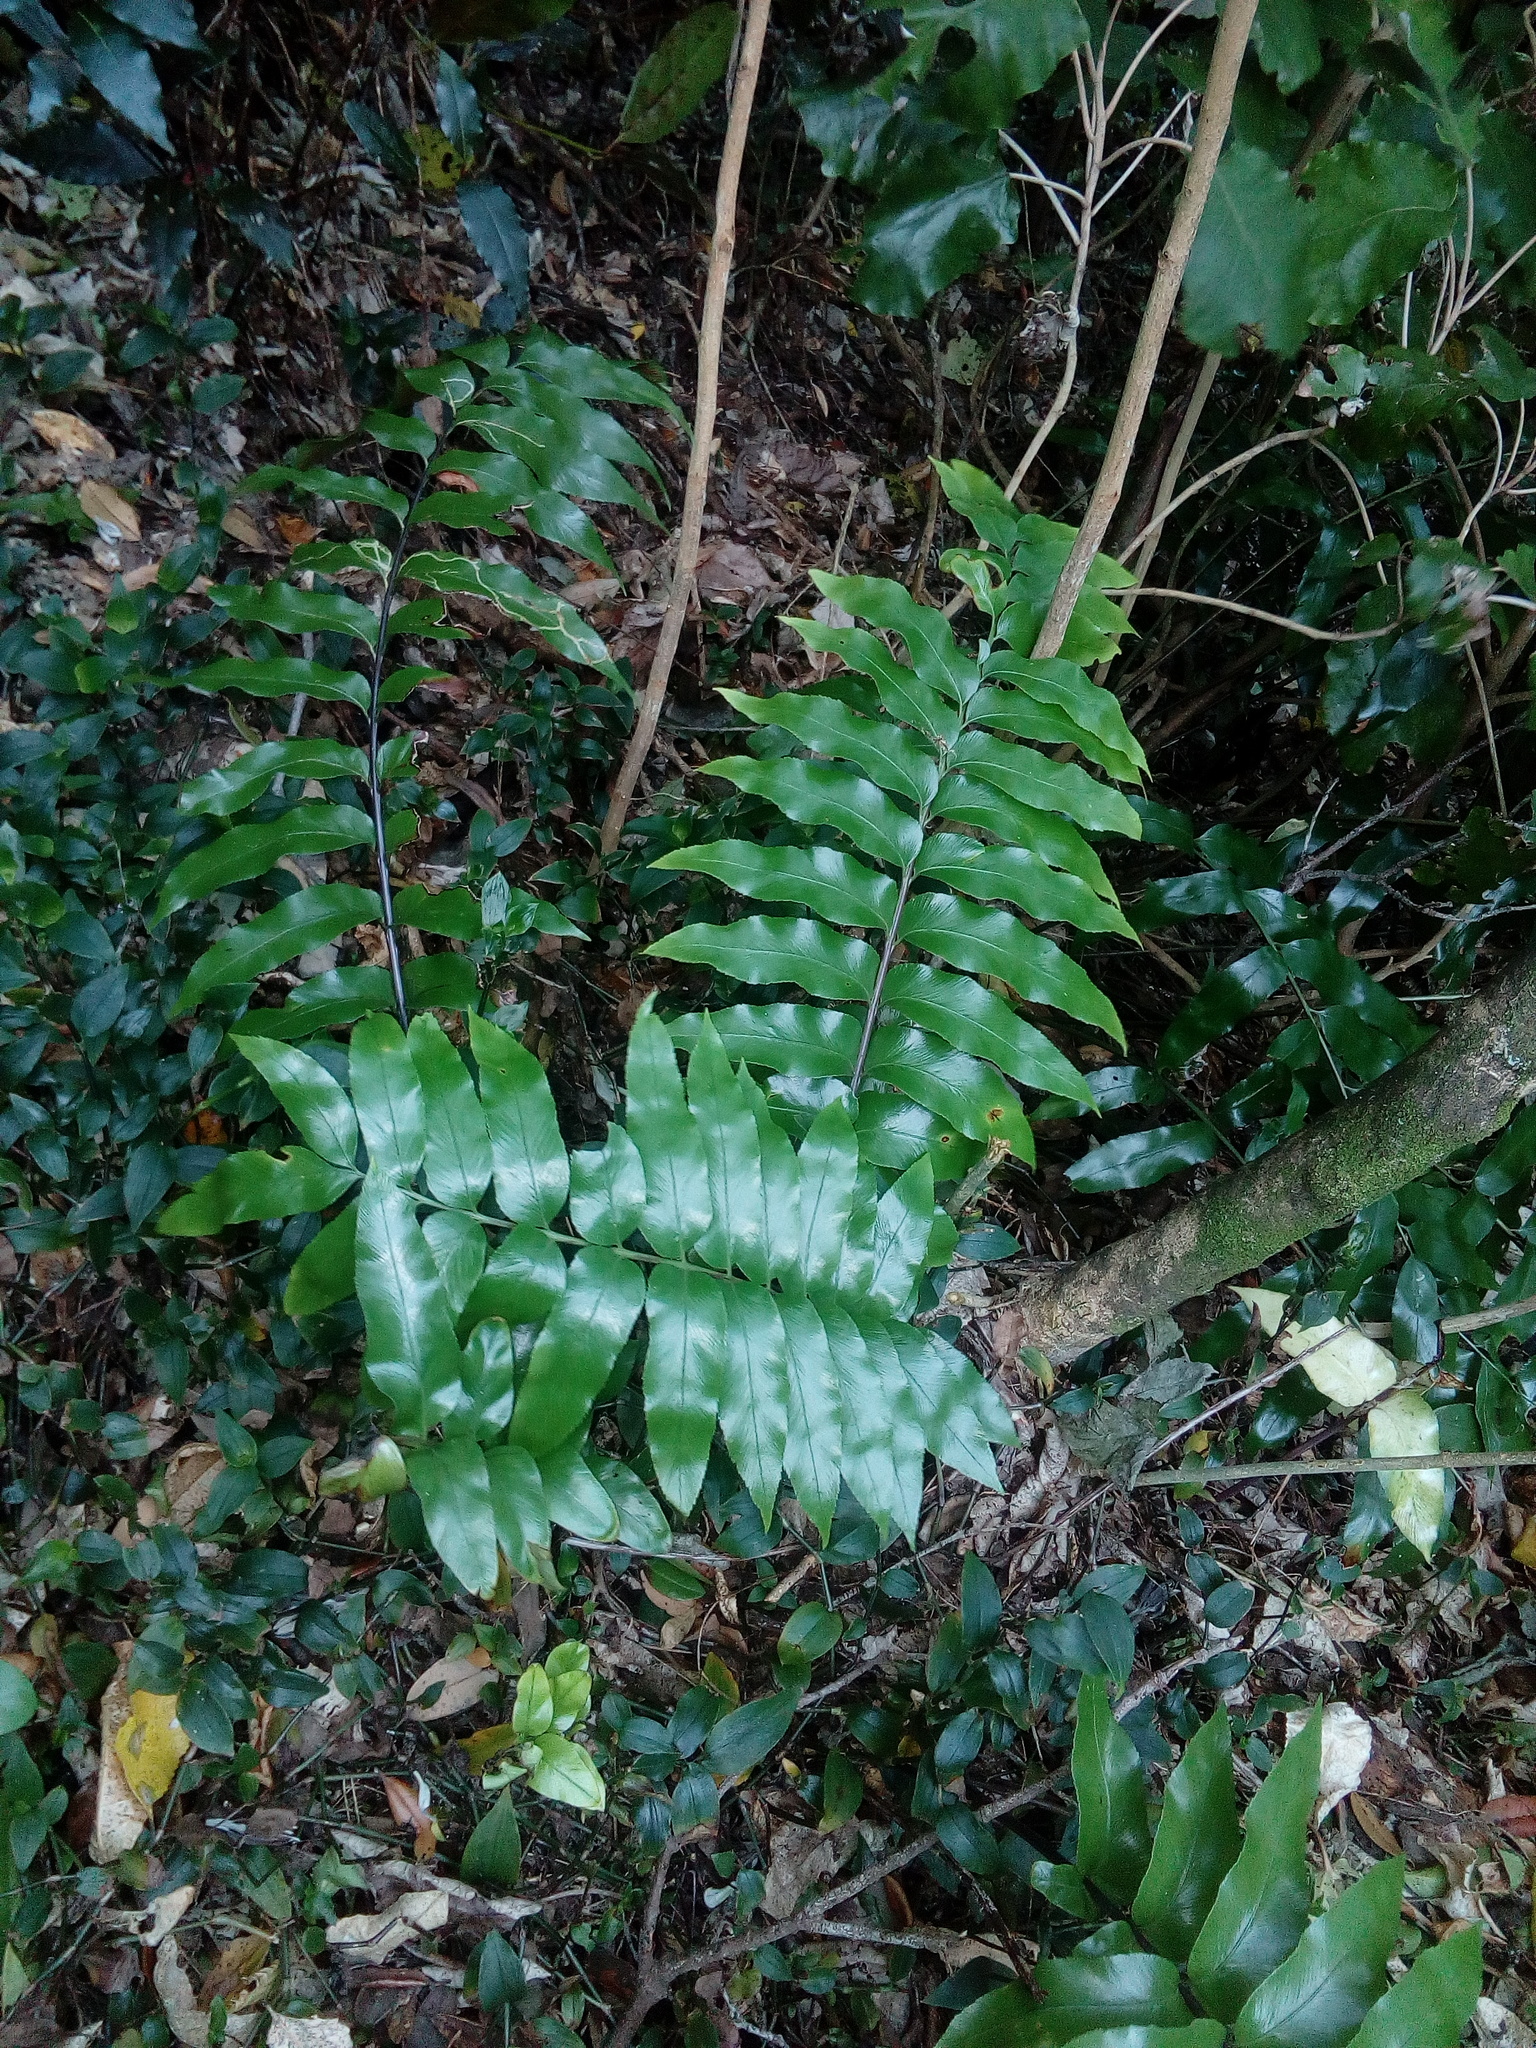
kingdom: Plantae
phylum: Tracheophyta
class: Polypodiopsida
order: Polypodiales
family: Aspleniaceae
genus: Asplenium
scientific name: Asplenium oblongifolium
